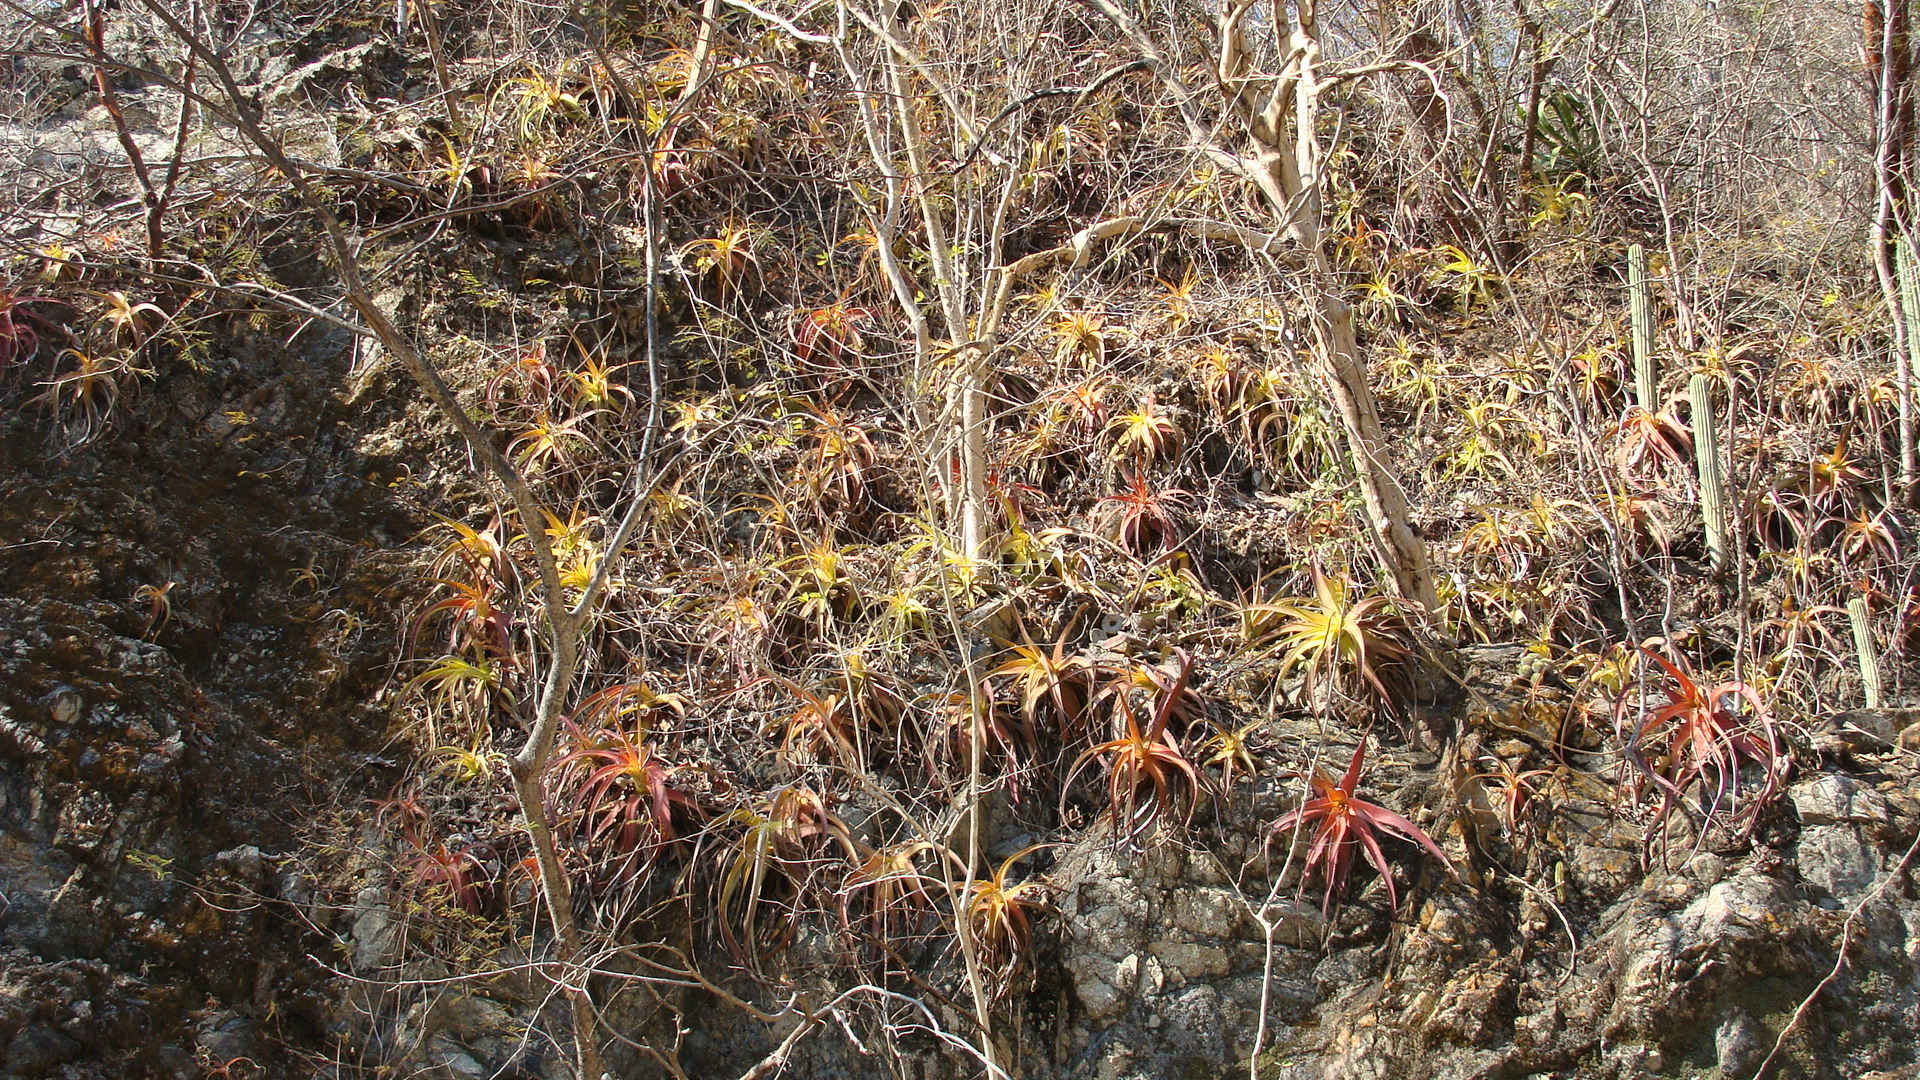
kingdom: Plantae
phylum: Tracheophyta
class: Liliopsida
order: Poales
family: Bromeliaceae
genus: Hechtia
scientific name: Hechtia rubicunda
